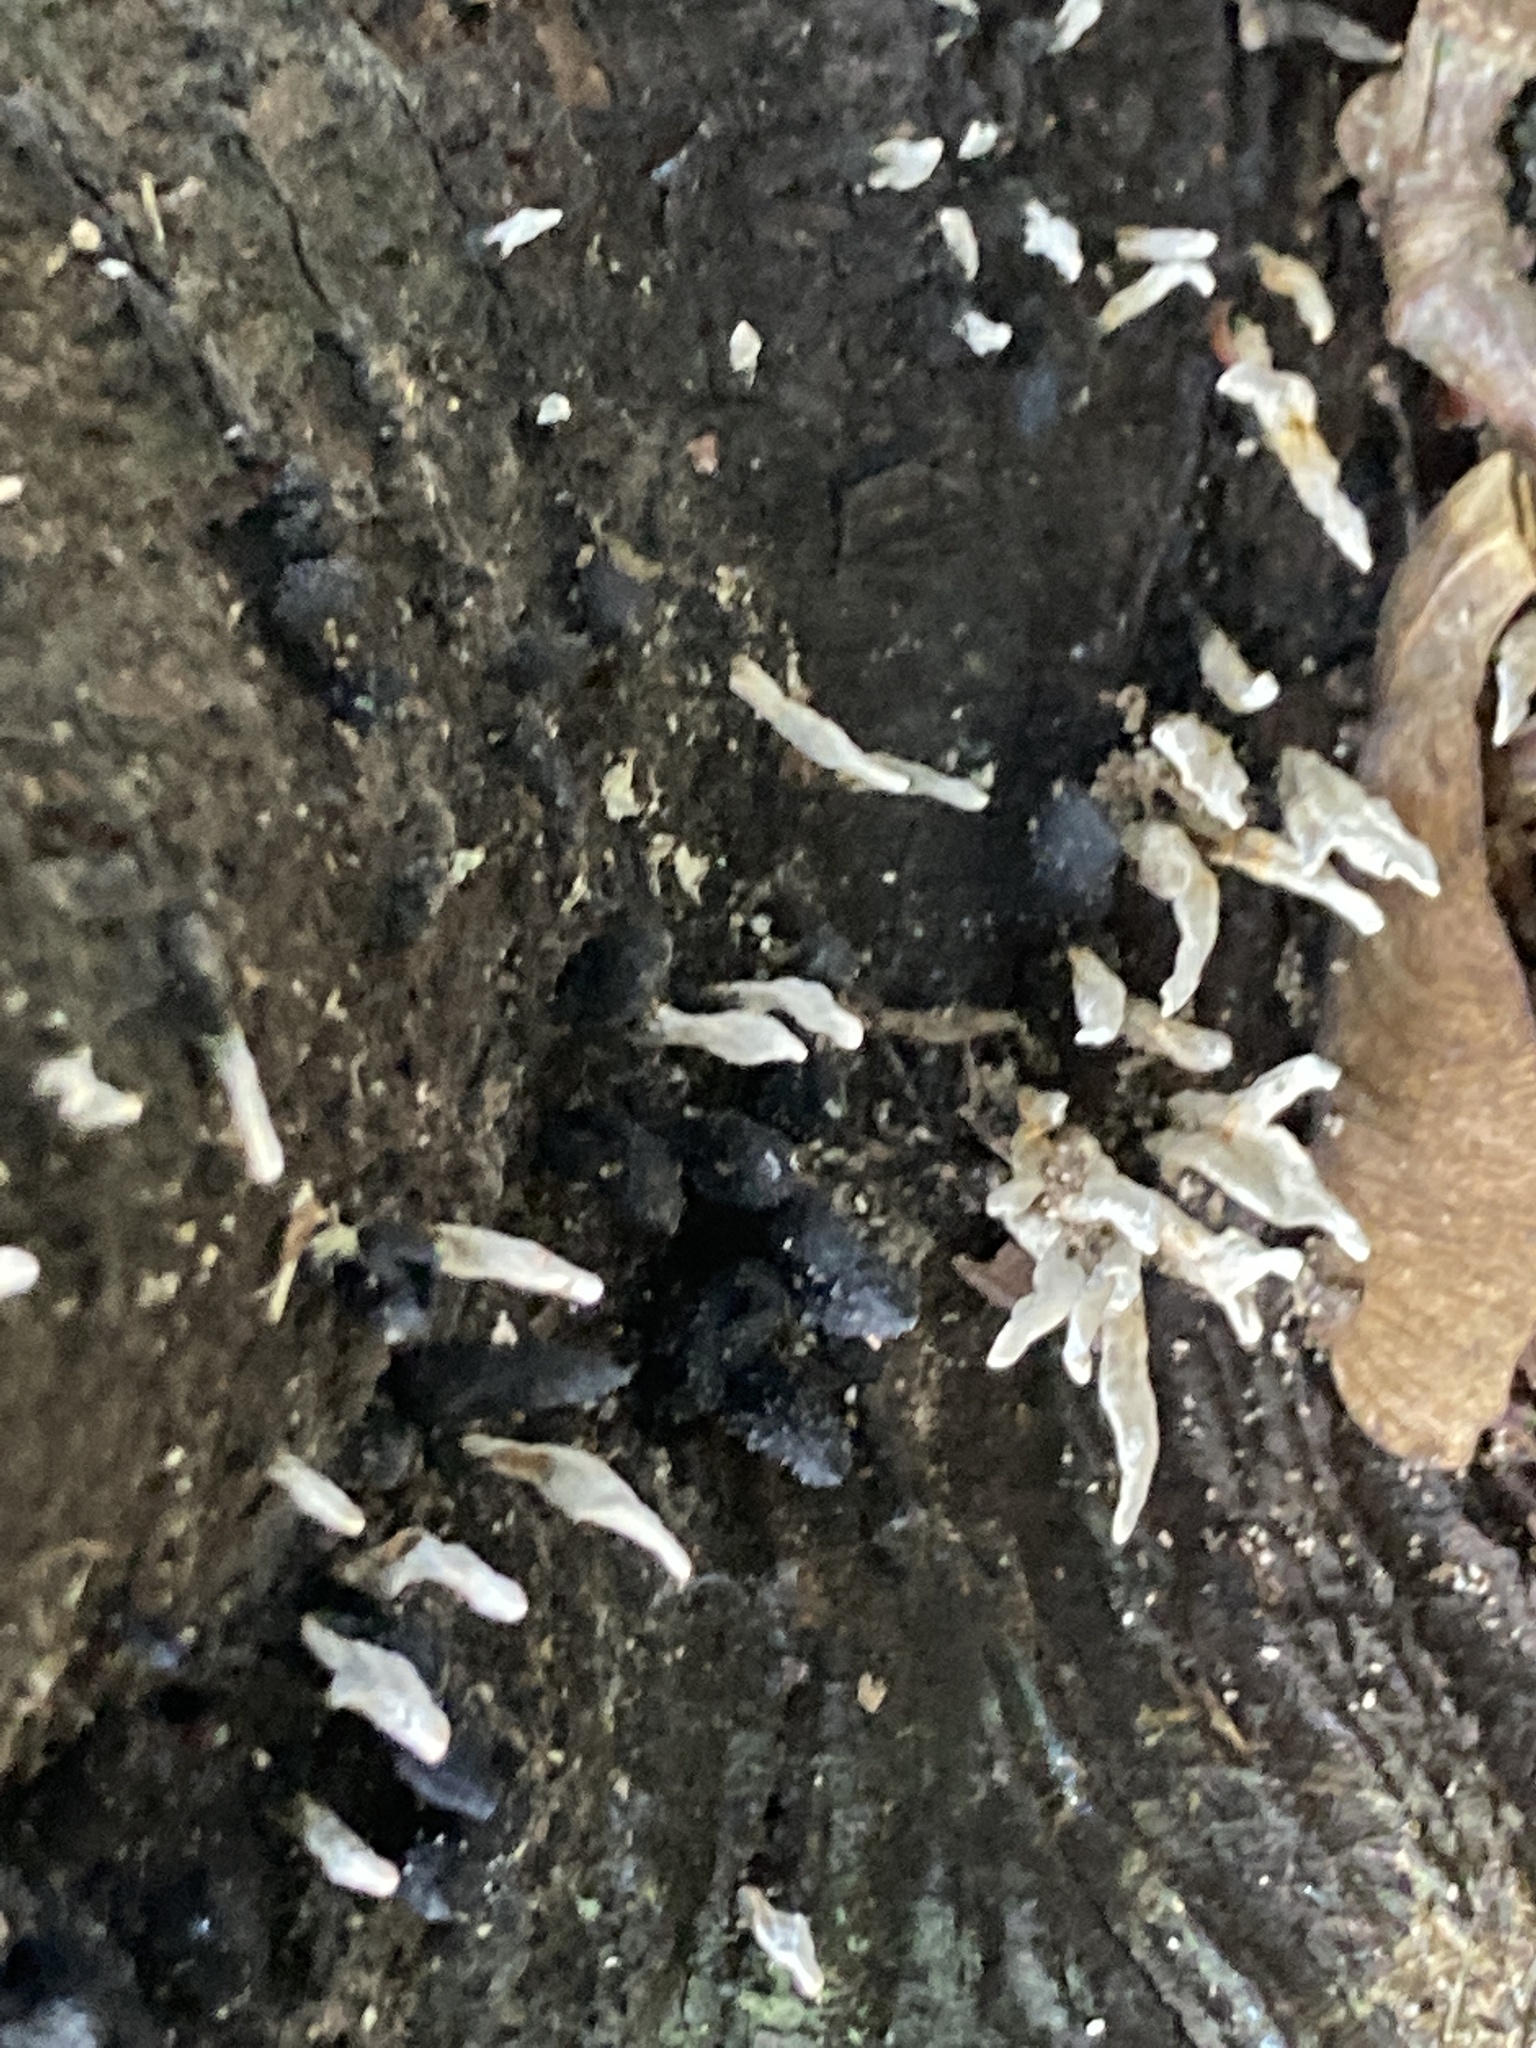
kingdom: Fungi
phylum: Ascomycota
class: Sordariomycetes
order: Xylariales
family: Xylariaceae
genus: Xylaria
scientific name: Xylaria hypoxylon
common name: Candle-snuff fungus
